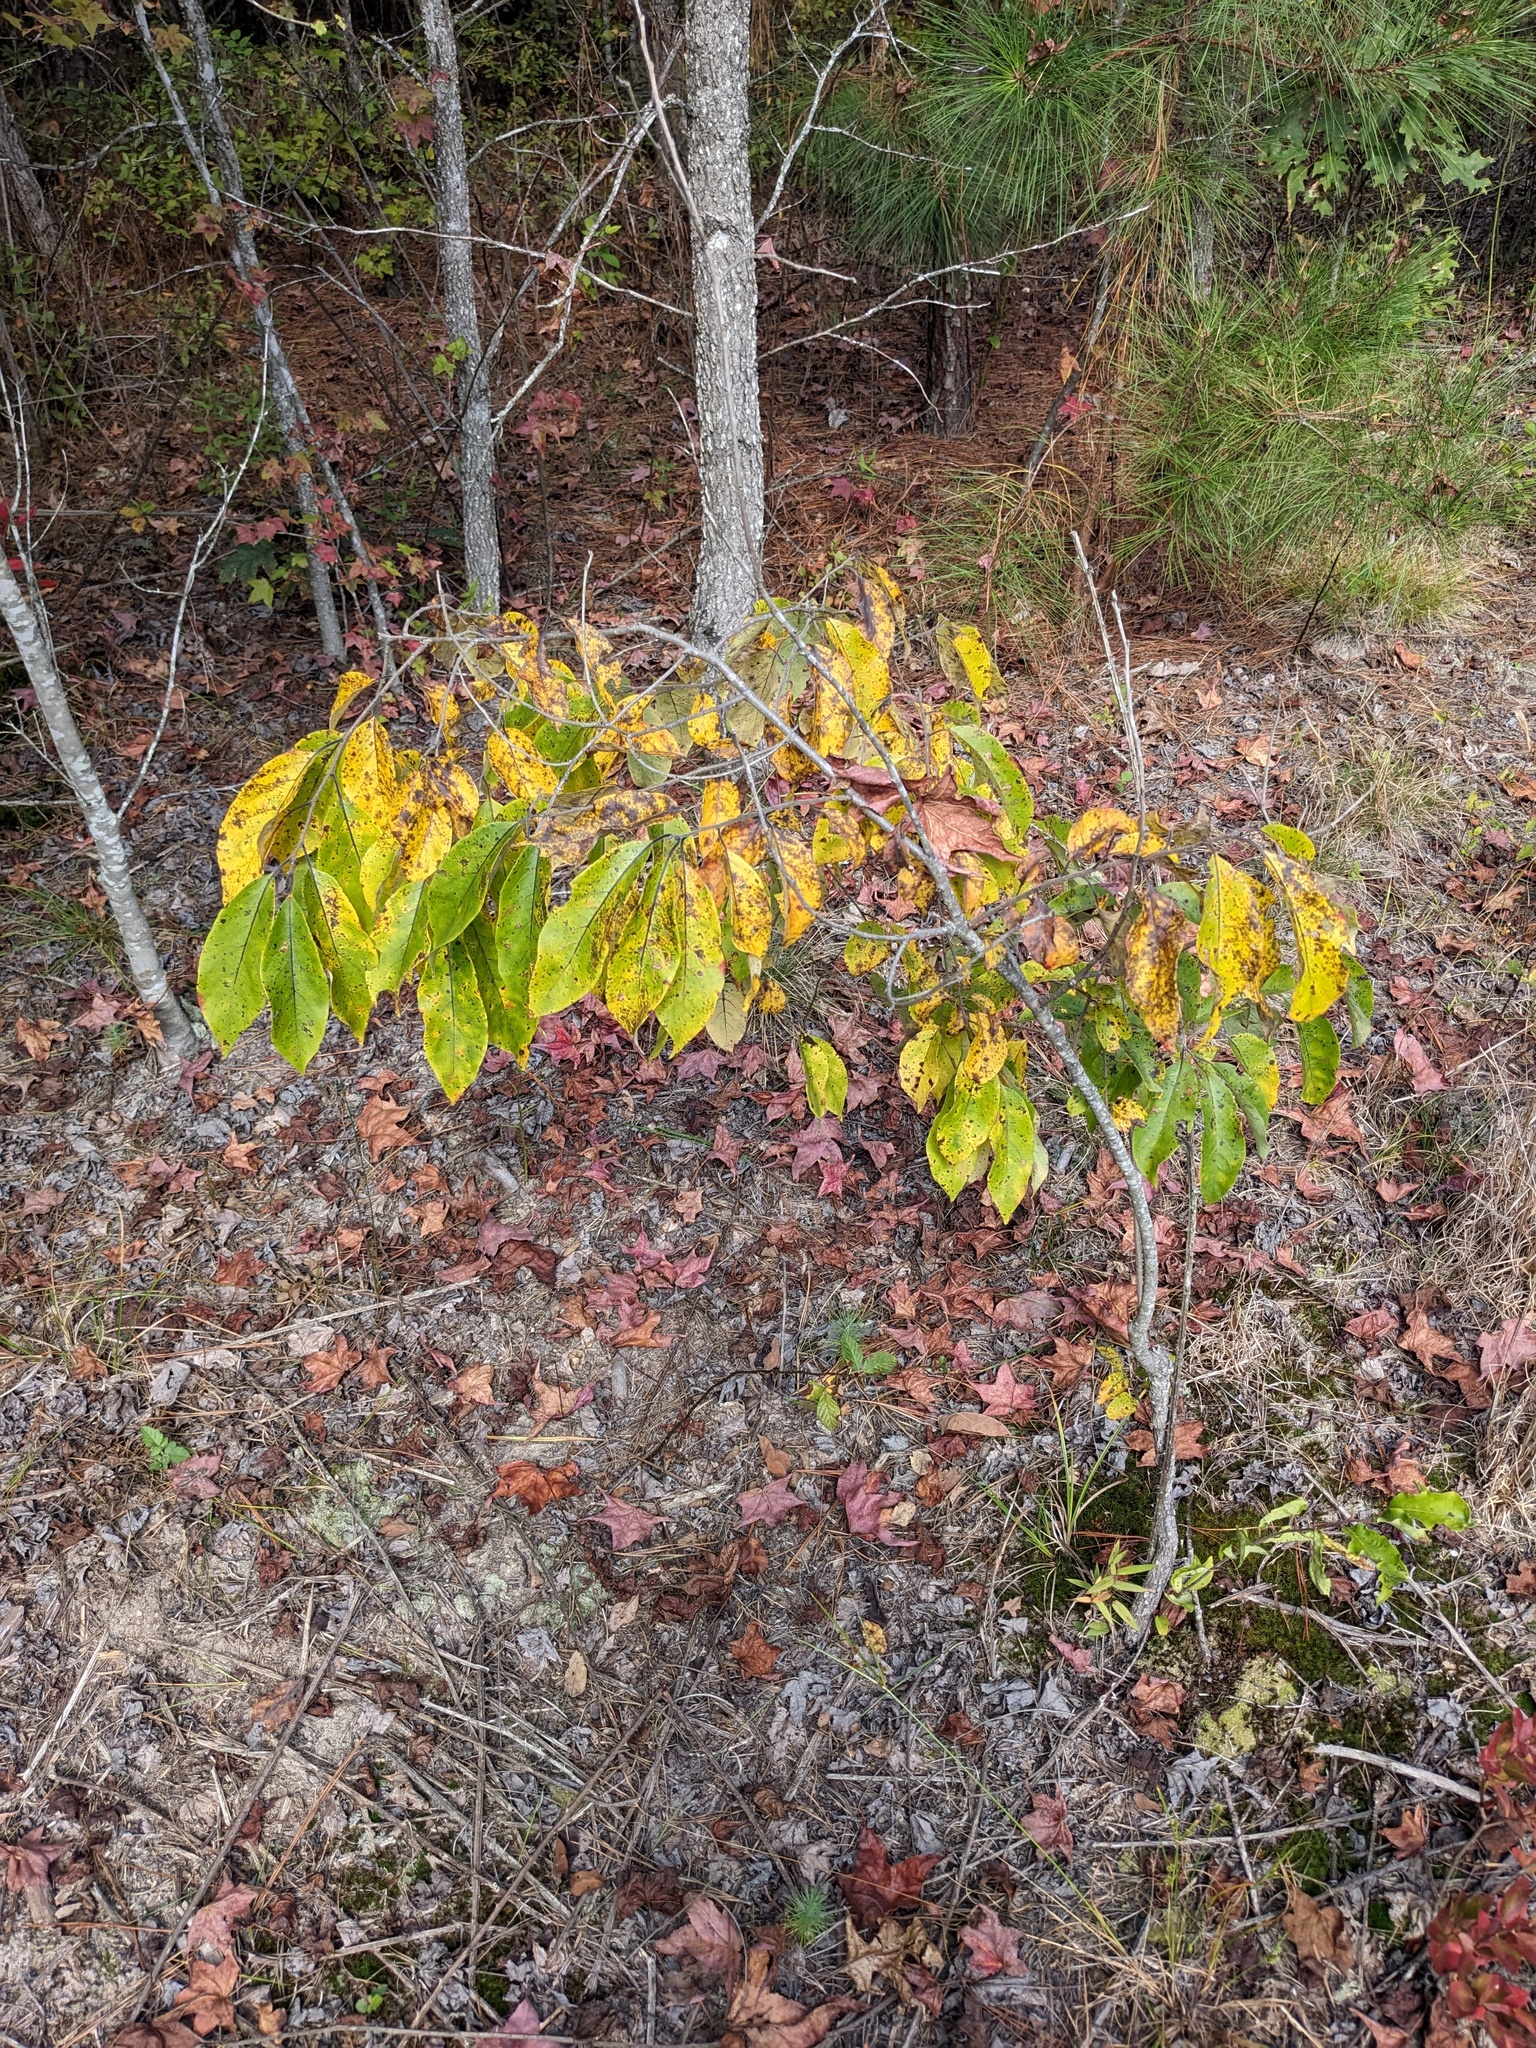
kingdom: Plantae
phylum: Tracheophyta
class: Magnoliopsida
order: Ericales
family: Ebenaceae
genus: Diospyros
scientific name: Diospyros virginiana
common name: Persimmon
